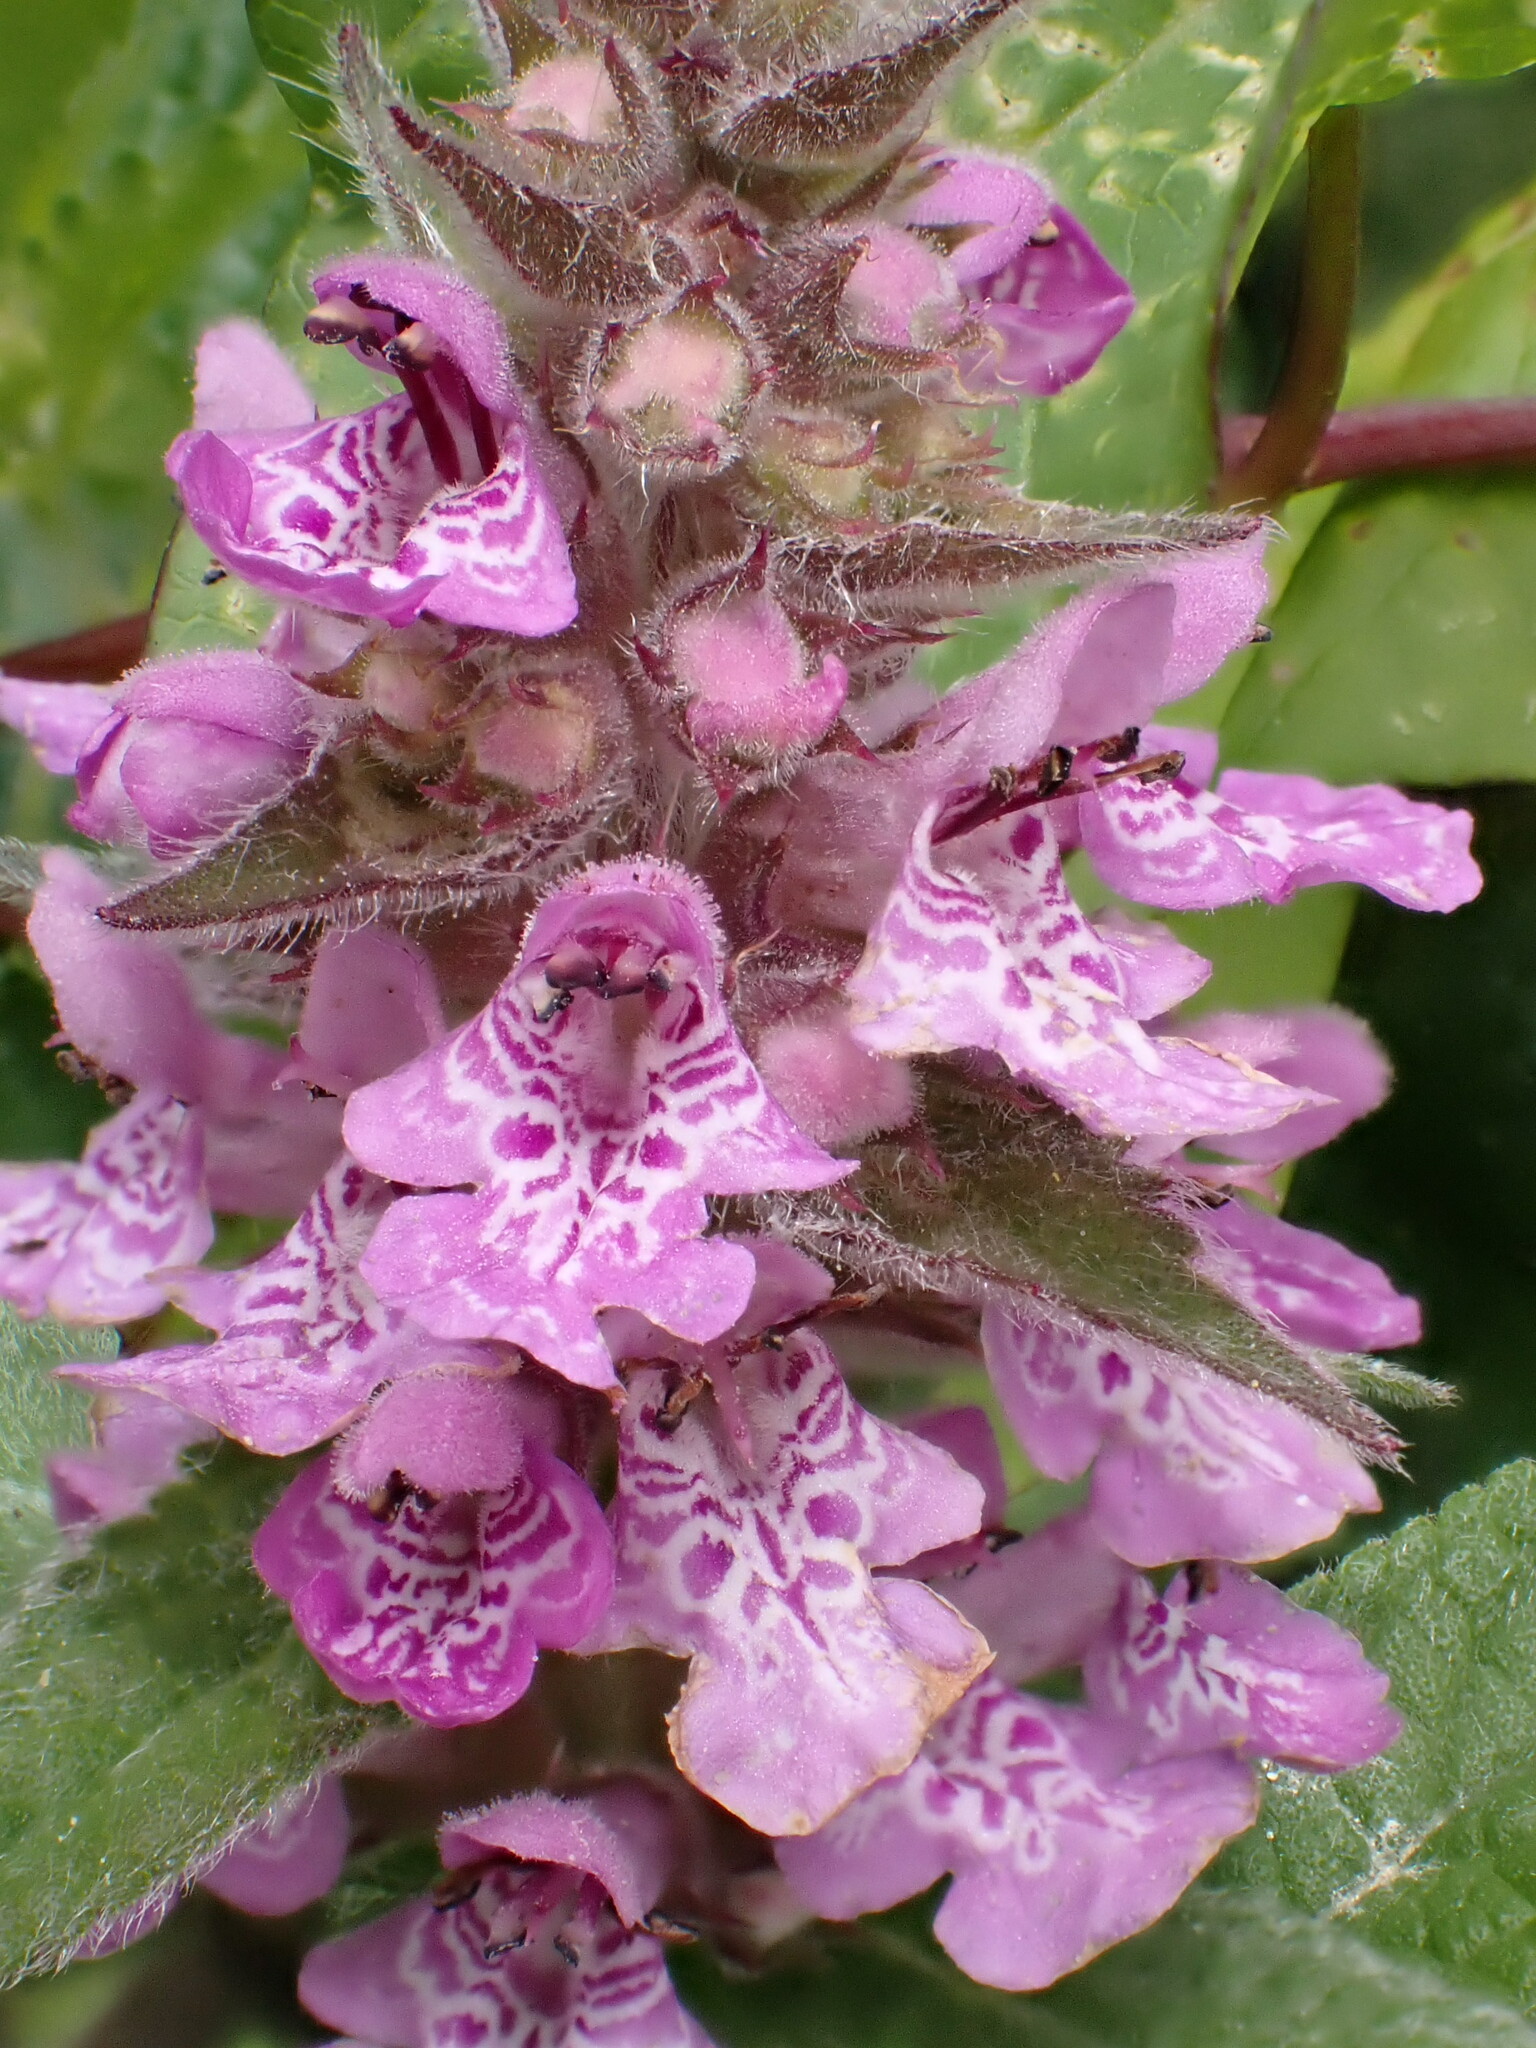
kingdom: Plantae
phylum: Tracheophyta
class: Magnoliopsida
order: Lamiales
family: Lamiaceae
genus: Stachys
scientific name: Stachys palustris
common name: Marsh woundwort
